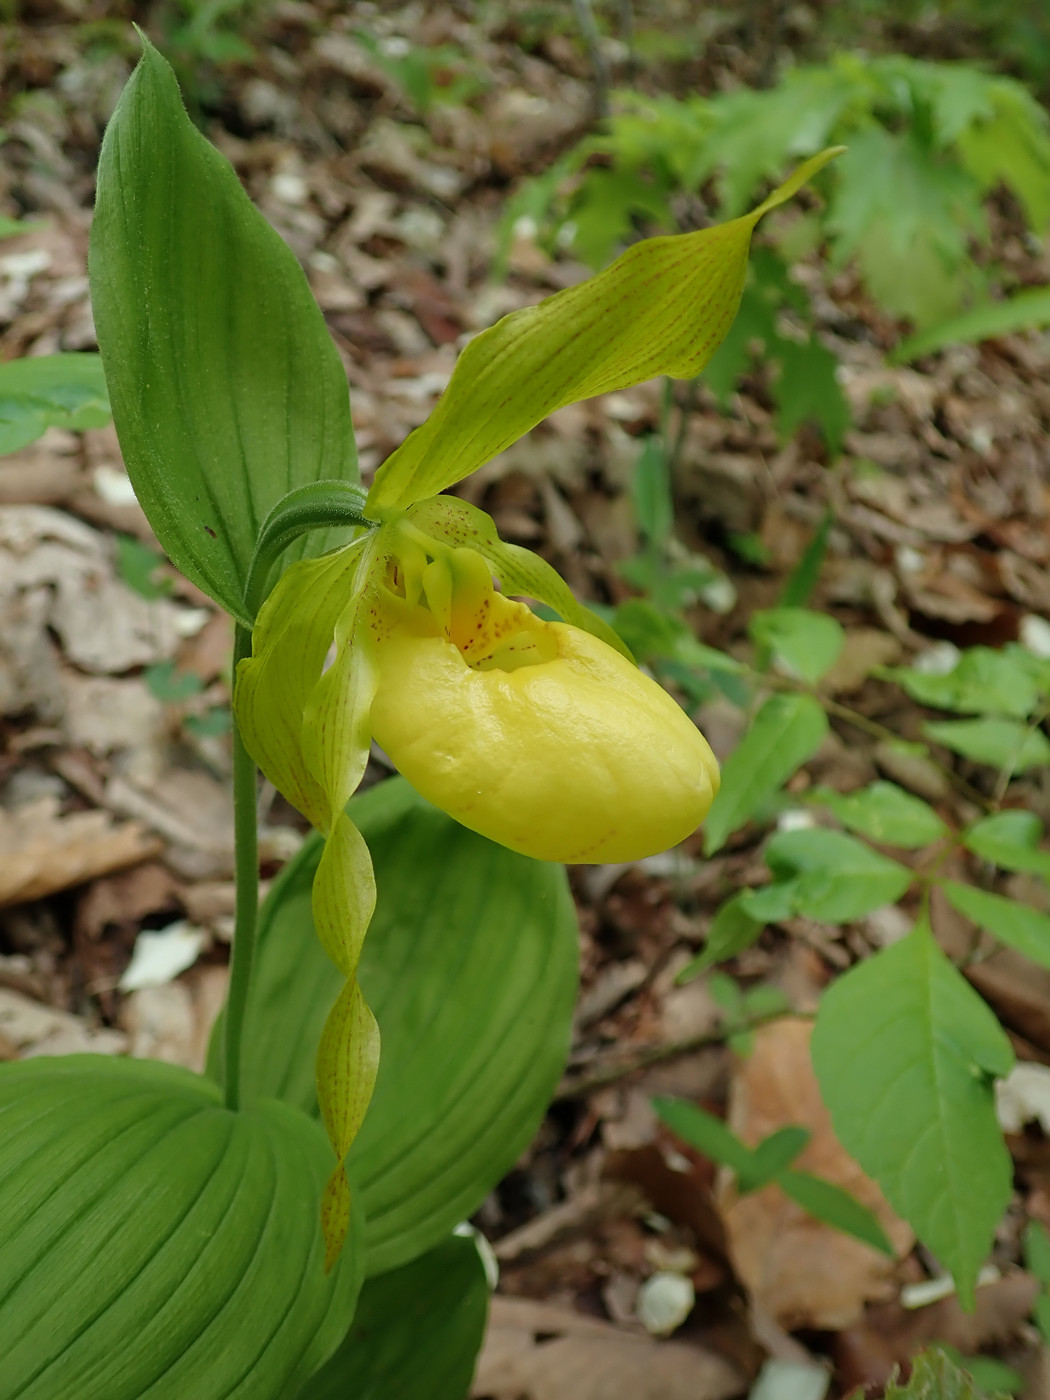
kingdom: Plantae
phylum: Tracheophyta
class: Liliopsida
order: Asparagales
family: Orchidaceae
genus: Cypripedium
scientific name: Cypripedium parviflorum
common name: American yellow lady's-slipper
